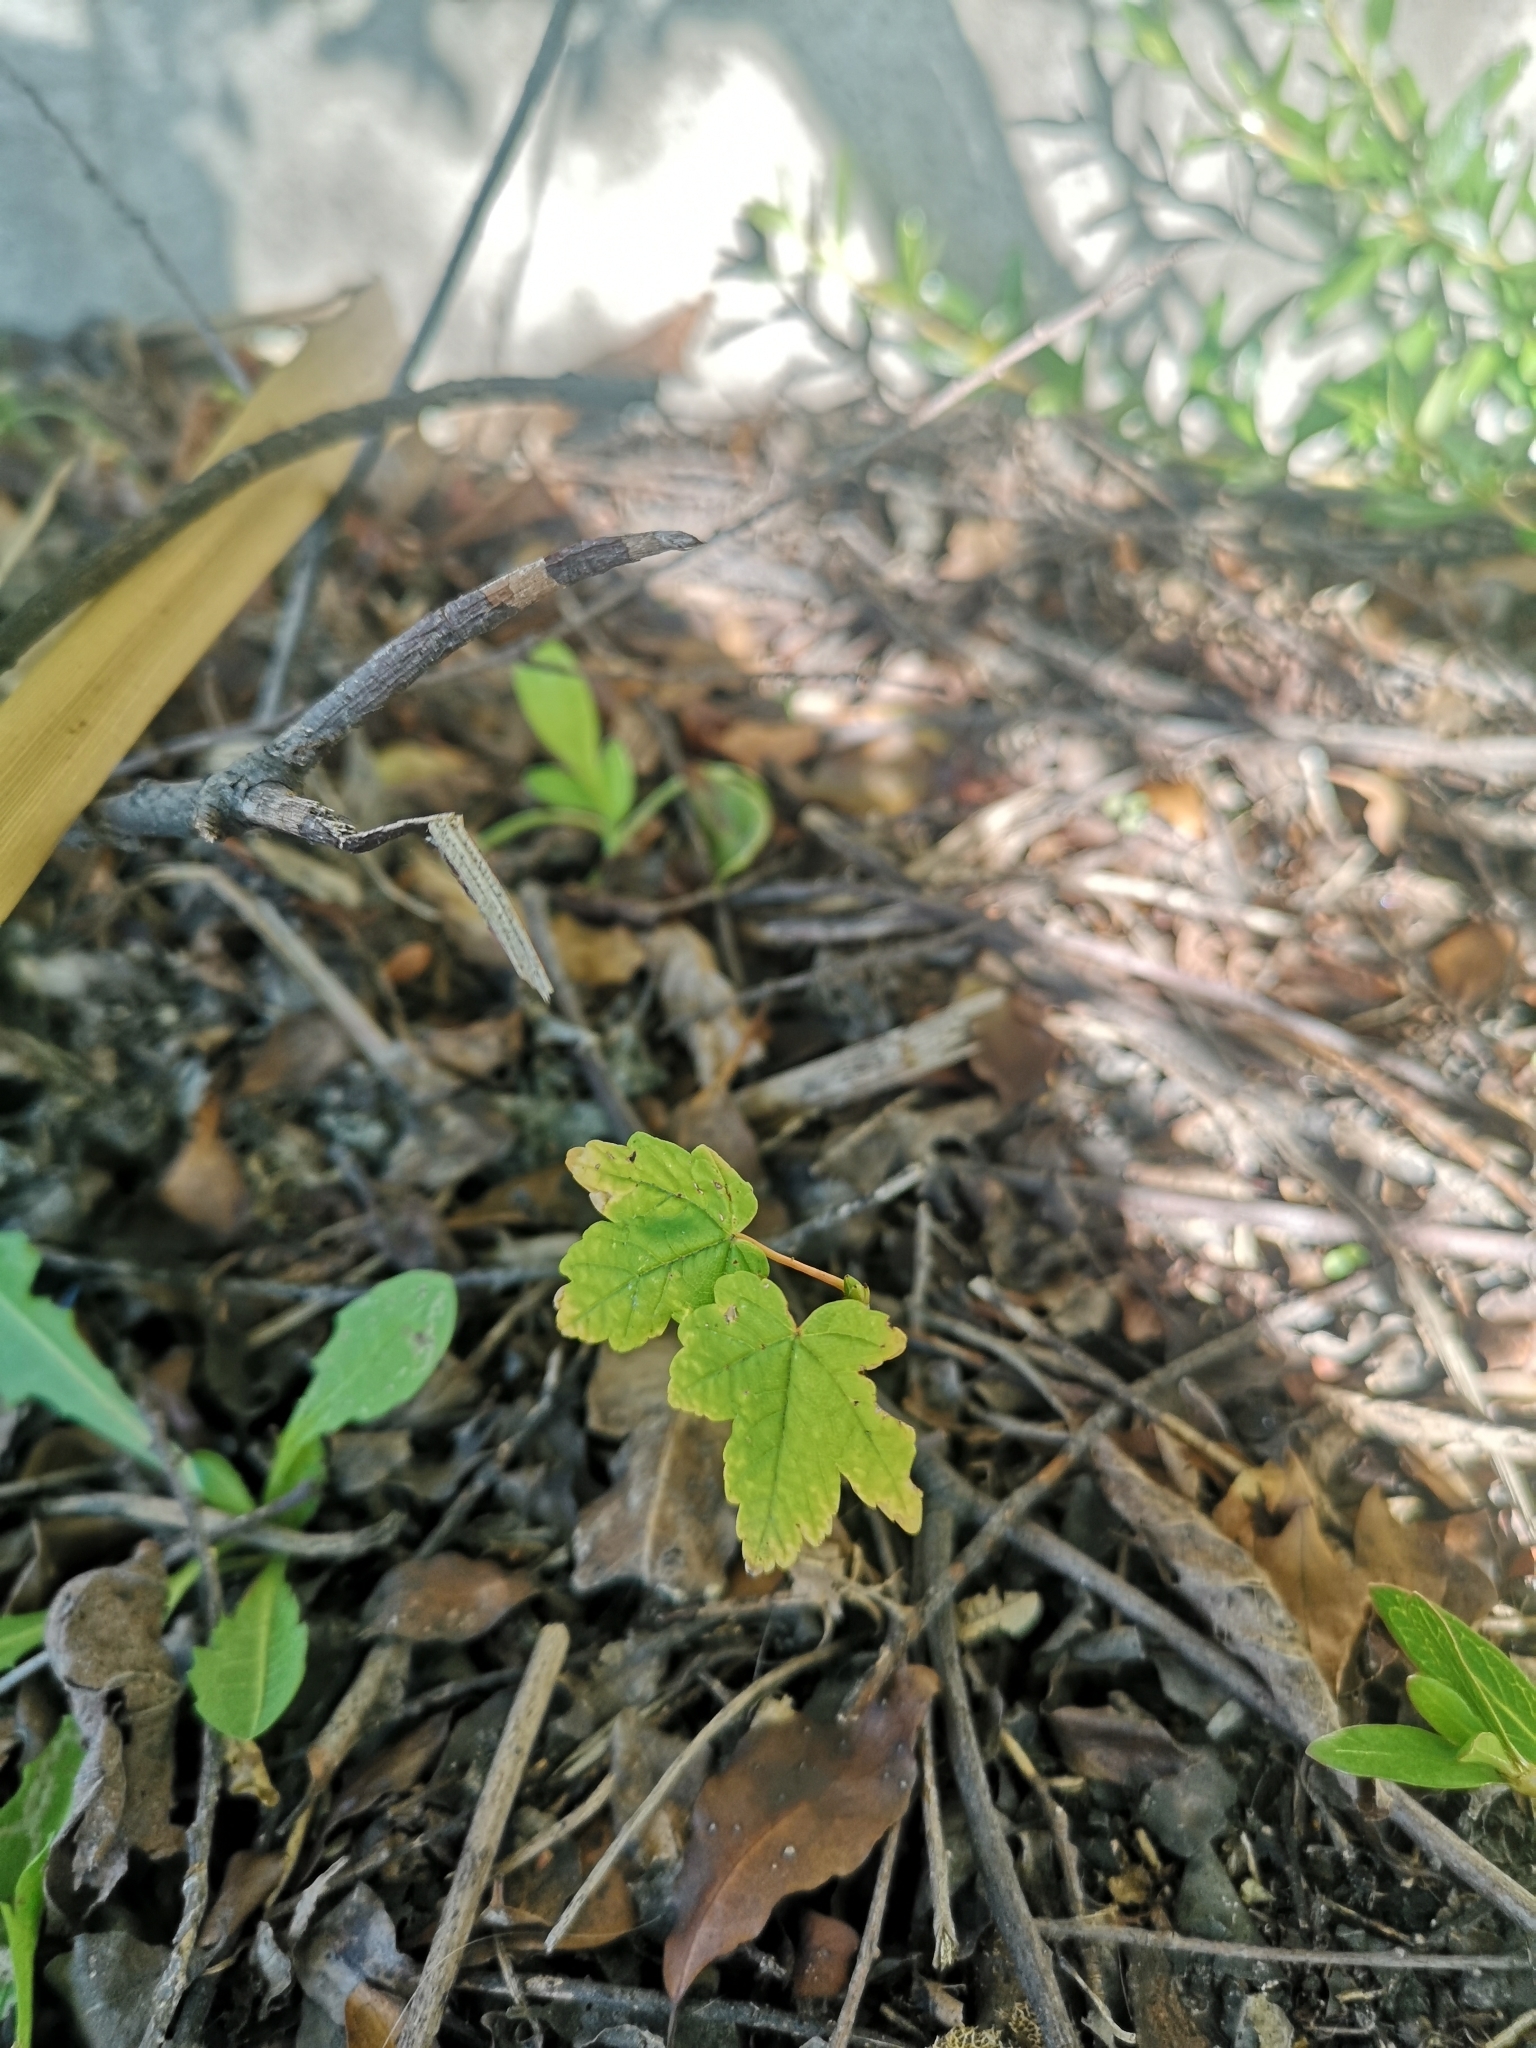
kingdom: Plantae
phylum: Tracheophyta
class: Magnoliopsida
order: Sapindales
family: Sapindaceae
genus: Acer
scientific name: Acer pseudoplatanus
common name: Sycamore
